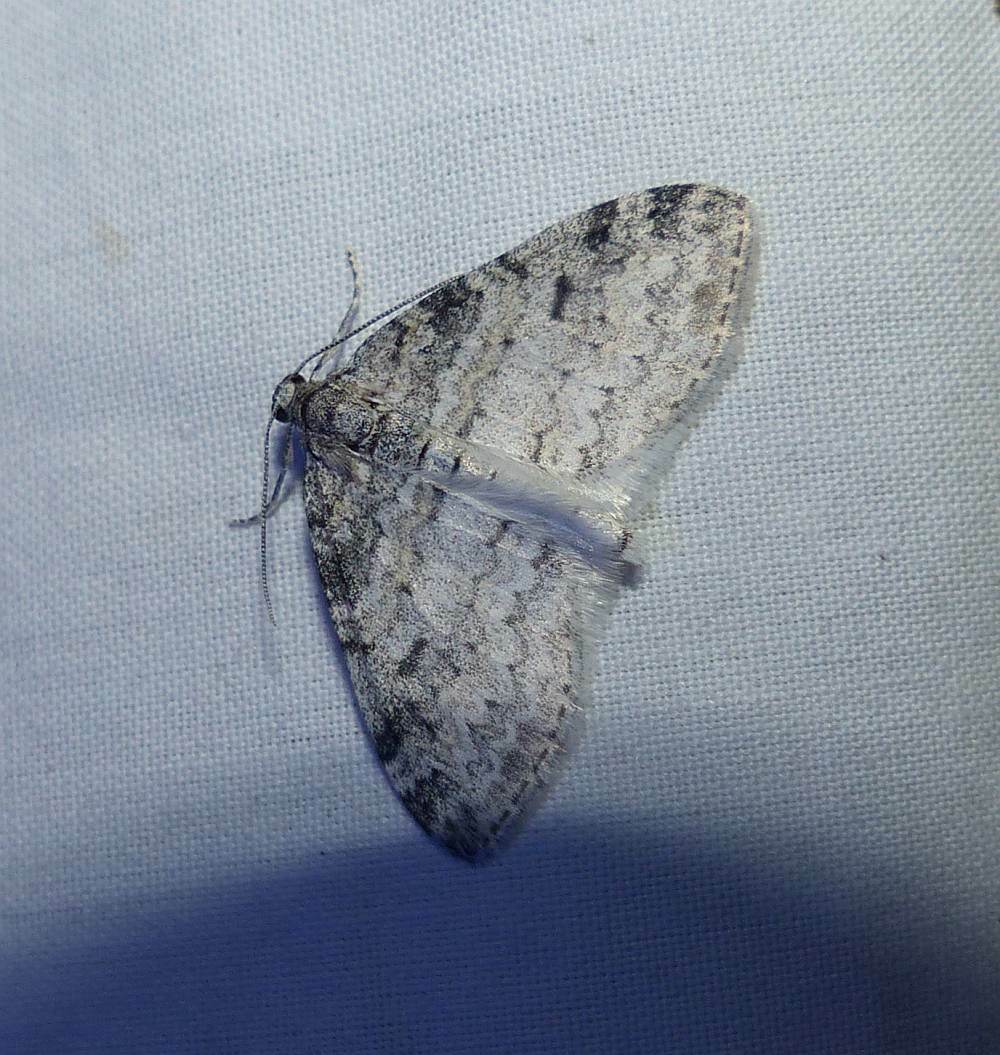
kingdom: Animalia
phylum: Arthropoda
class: Insecta
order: Lepidoptera
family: Geometridae
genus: Lobophora
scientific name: Lobophora nivigerata
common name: Powdered bigwing
